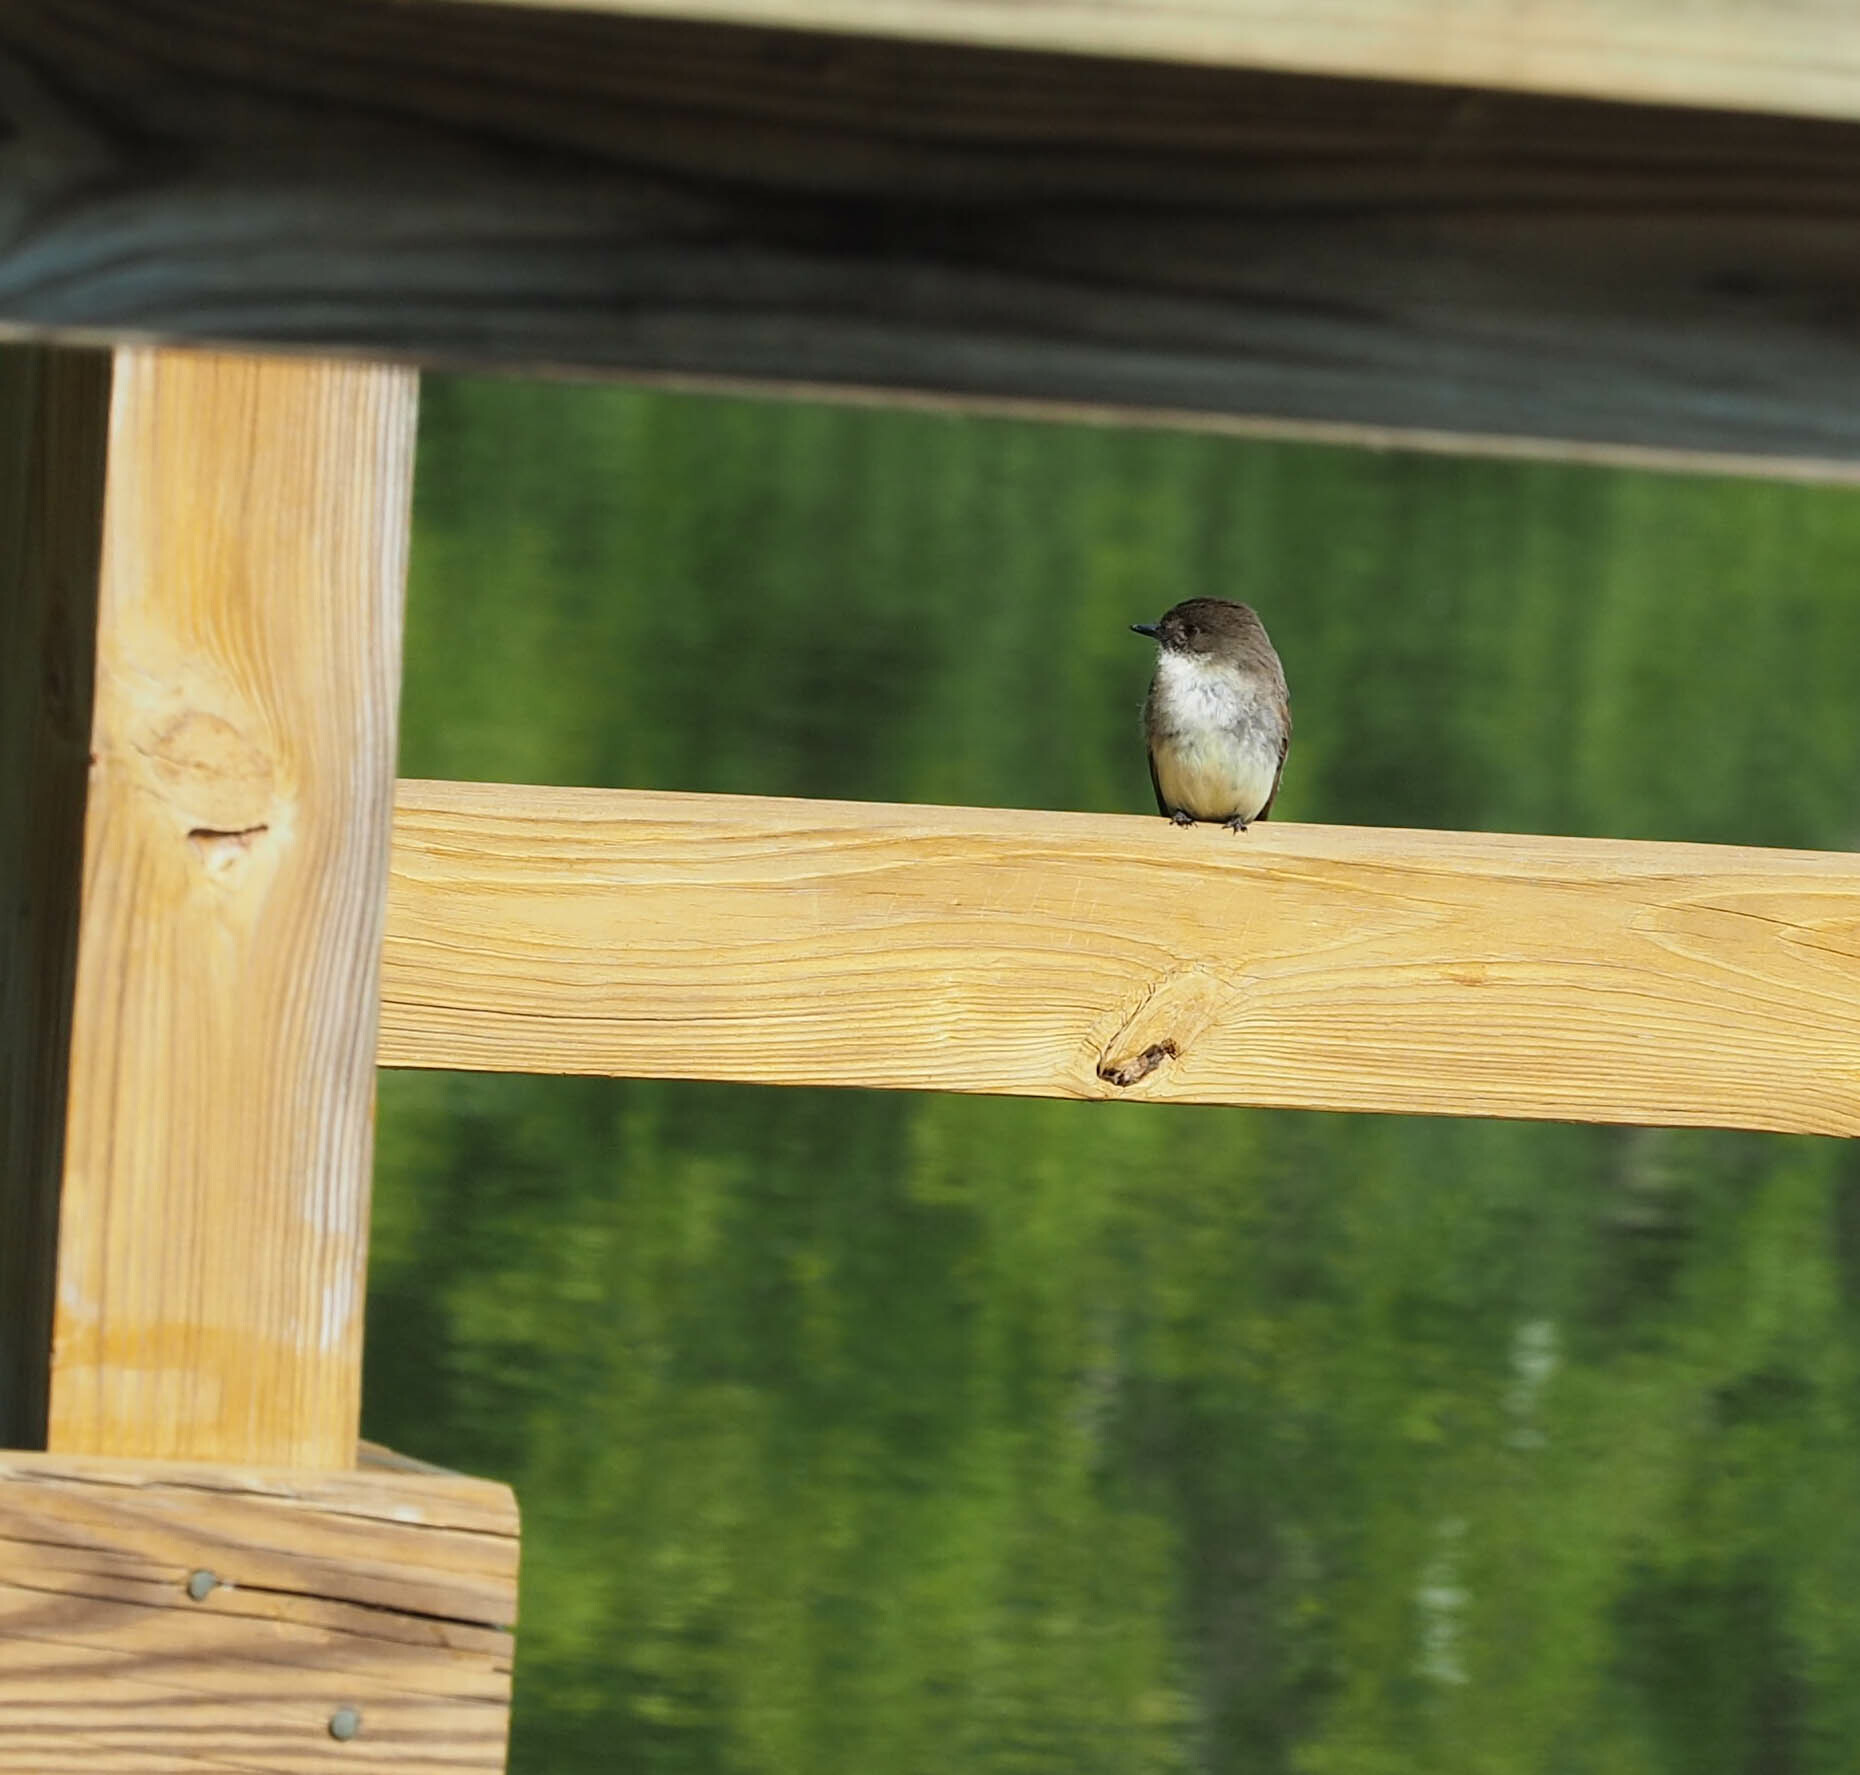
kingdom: Animalia
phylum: Chordata
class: Aves
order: Passeriformes
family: Tyrannidae
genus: Sayornis
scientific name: Sayornis phoebe
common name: Eastern phoebe
